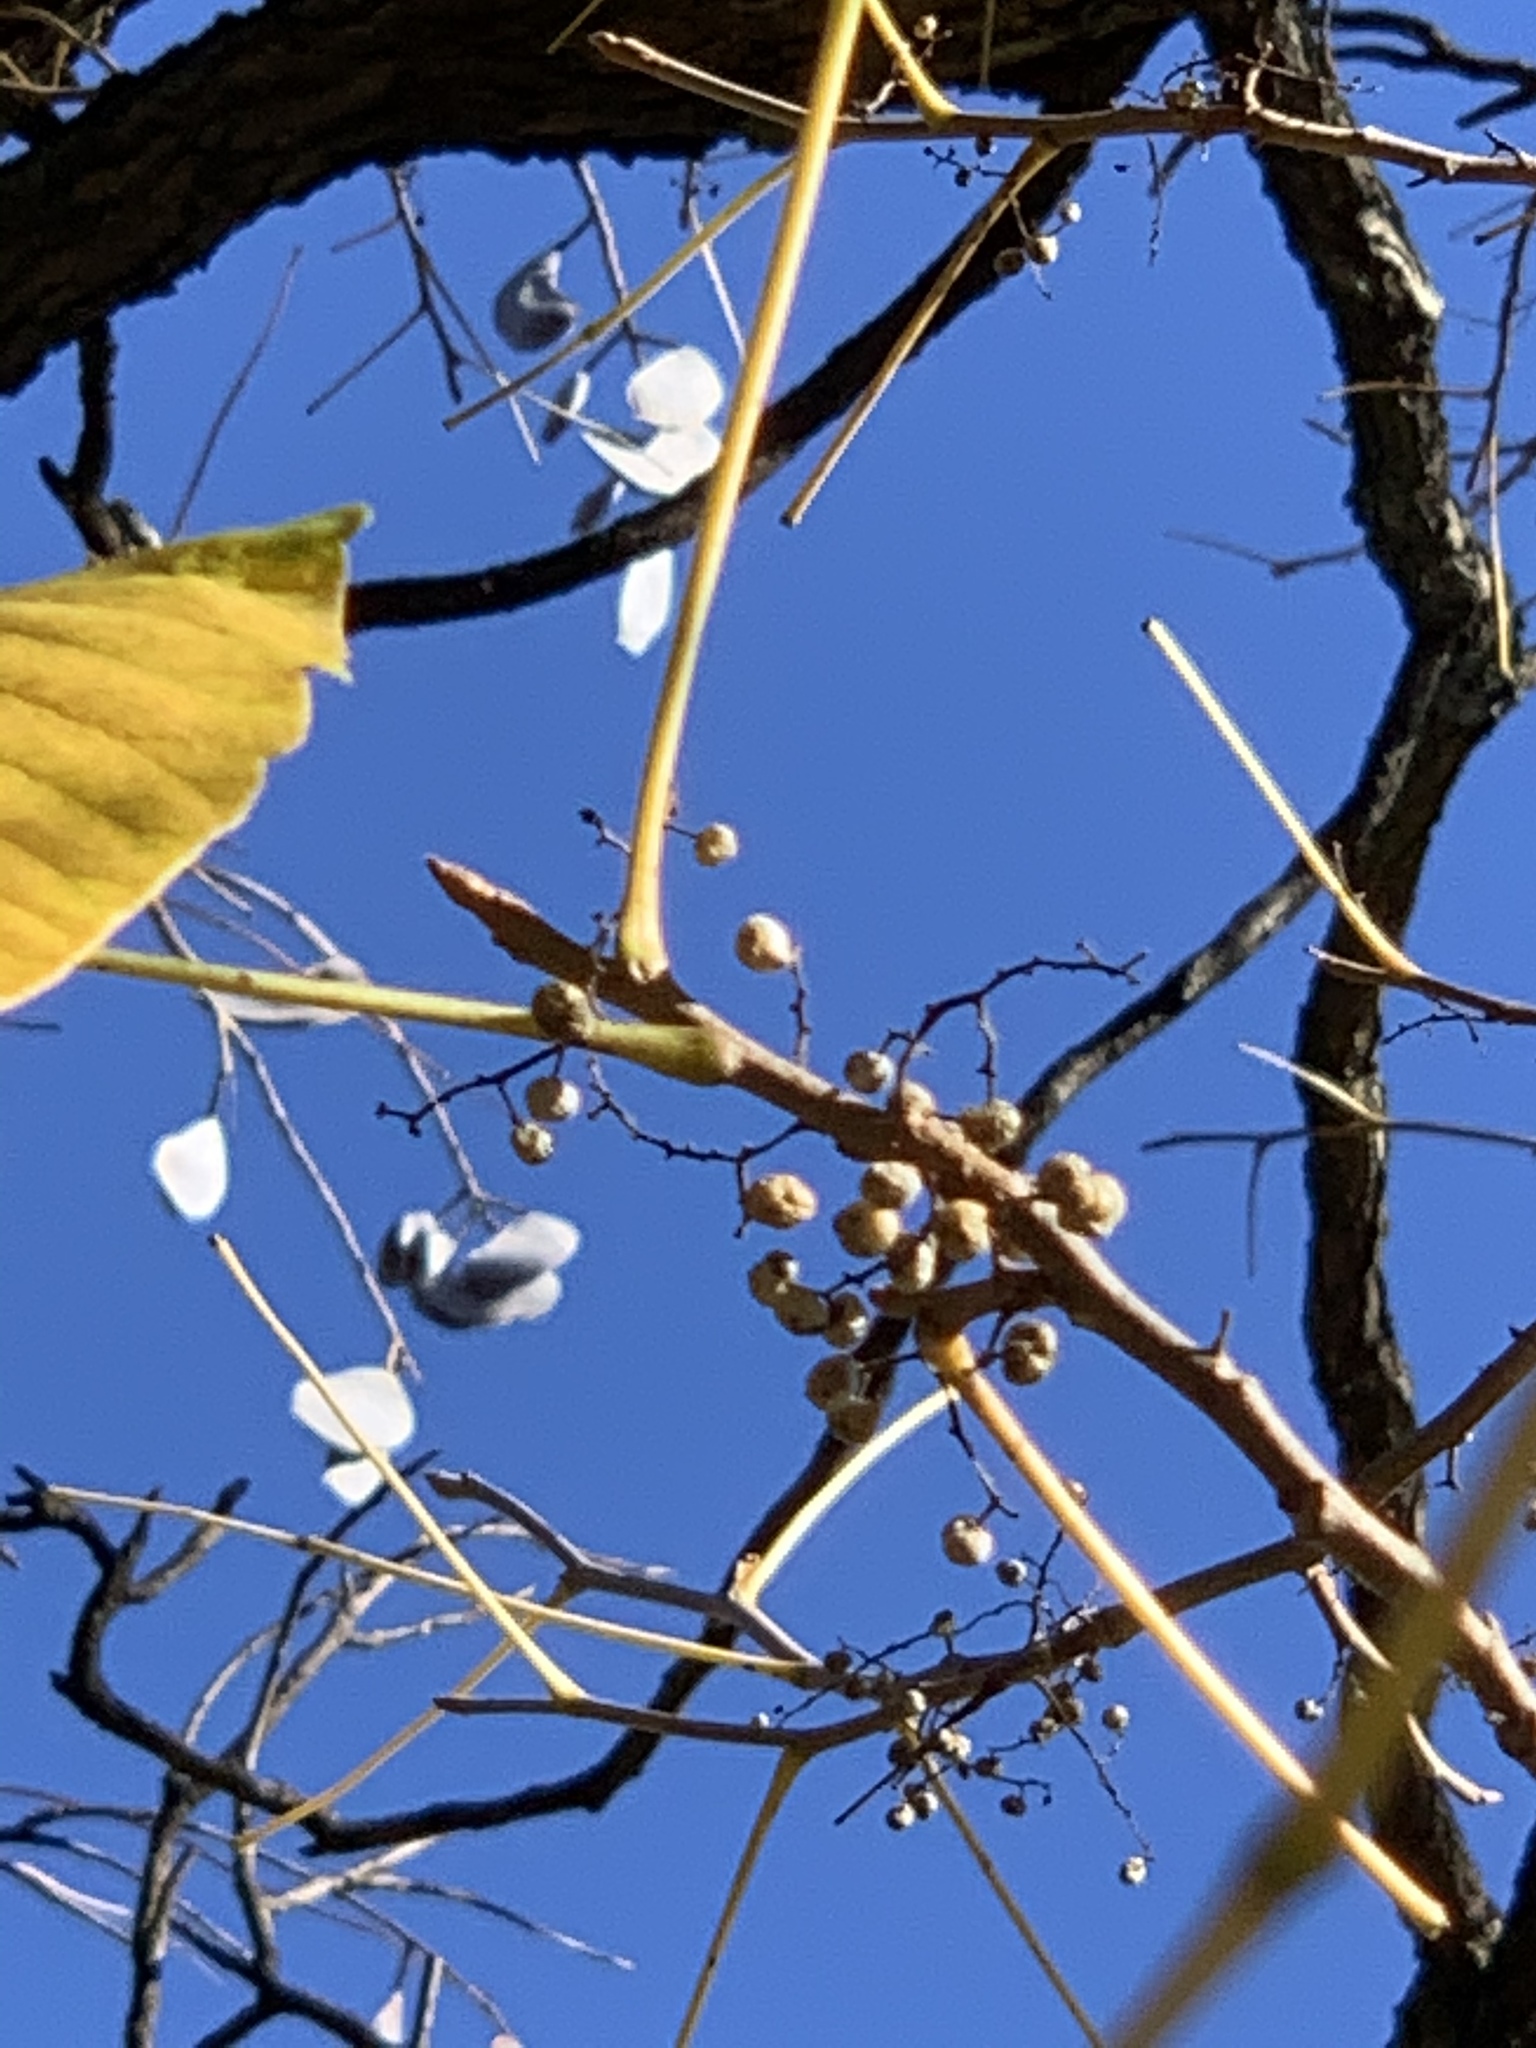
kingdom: Plantae
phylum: Tracheophyta
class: Magnoliopsida
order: Sapindales
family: Anacardiaceae
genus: Toxicodendron
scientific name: Toxicodendron radicans
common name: Poison ivy
